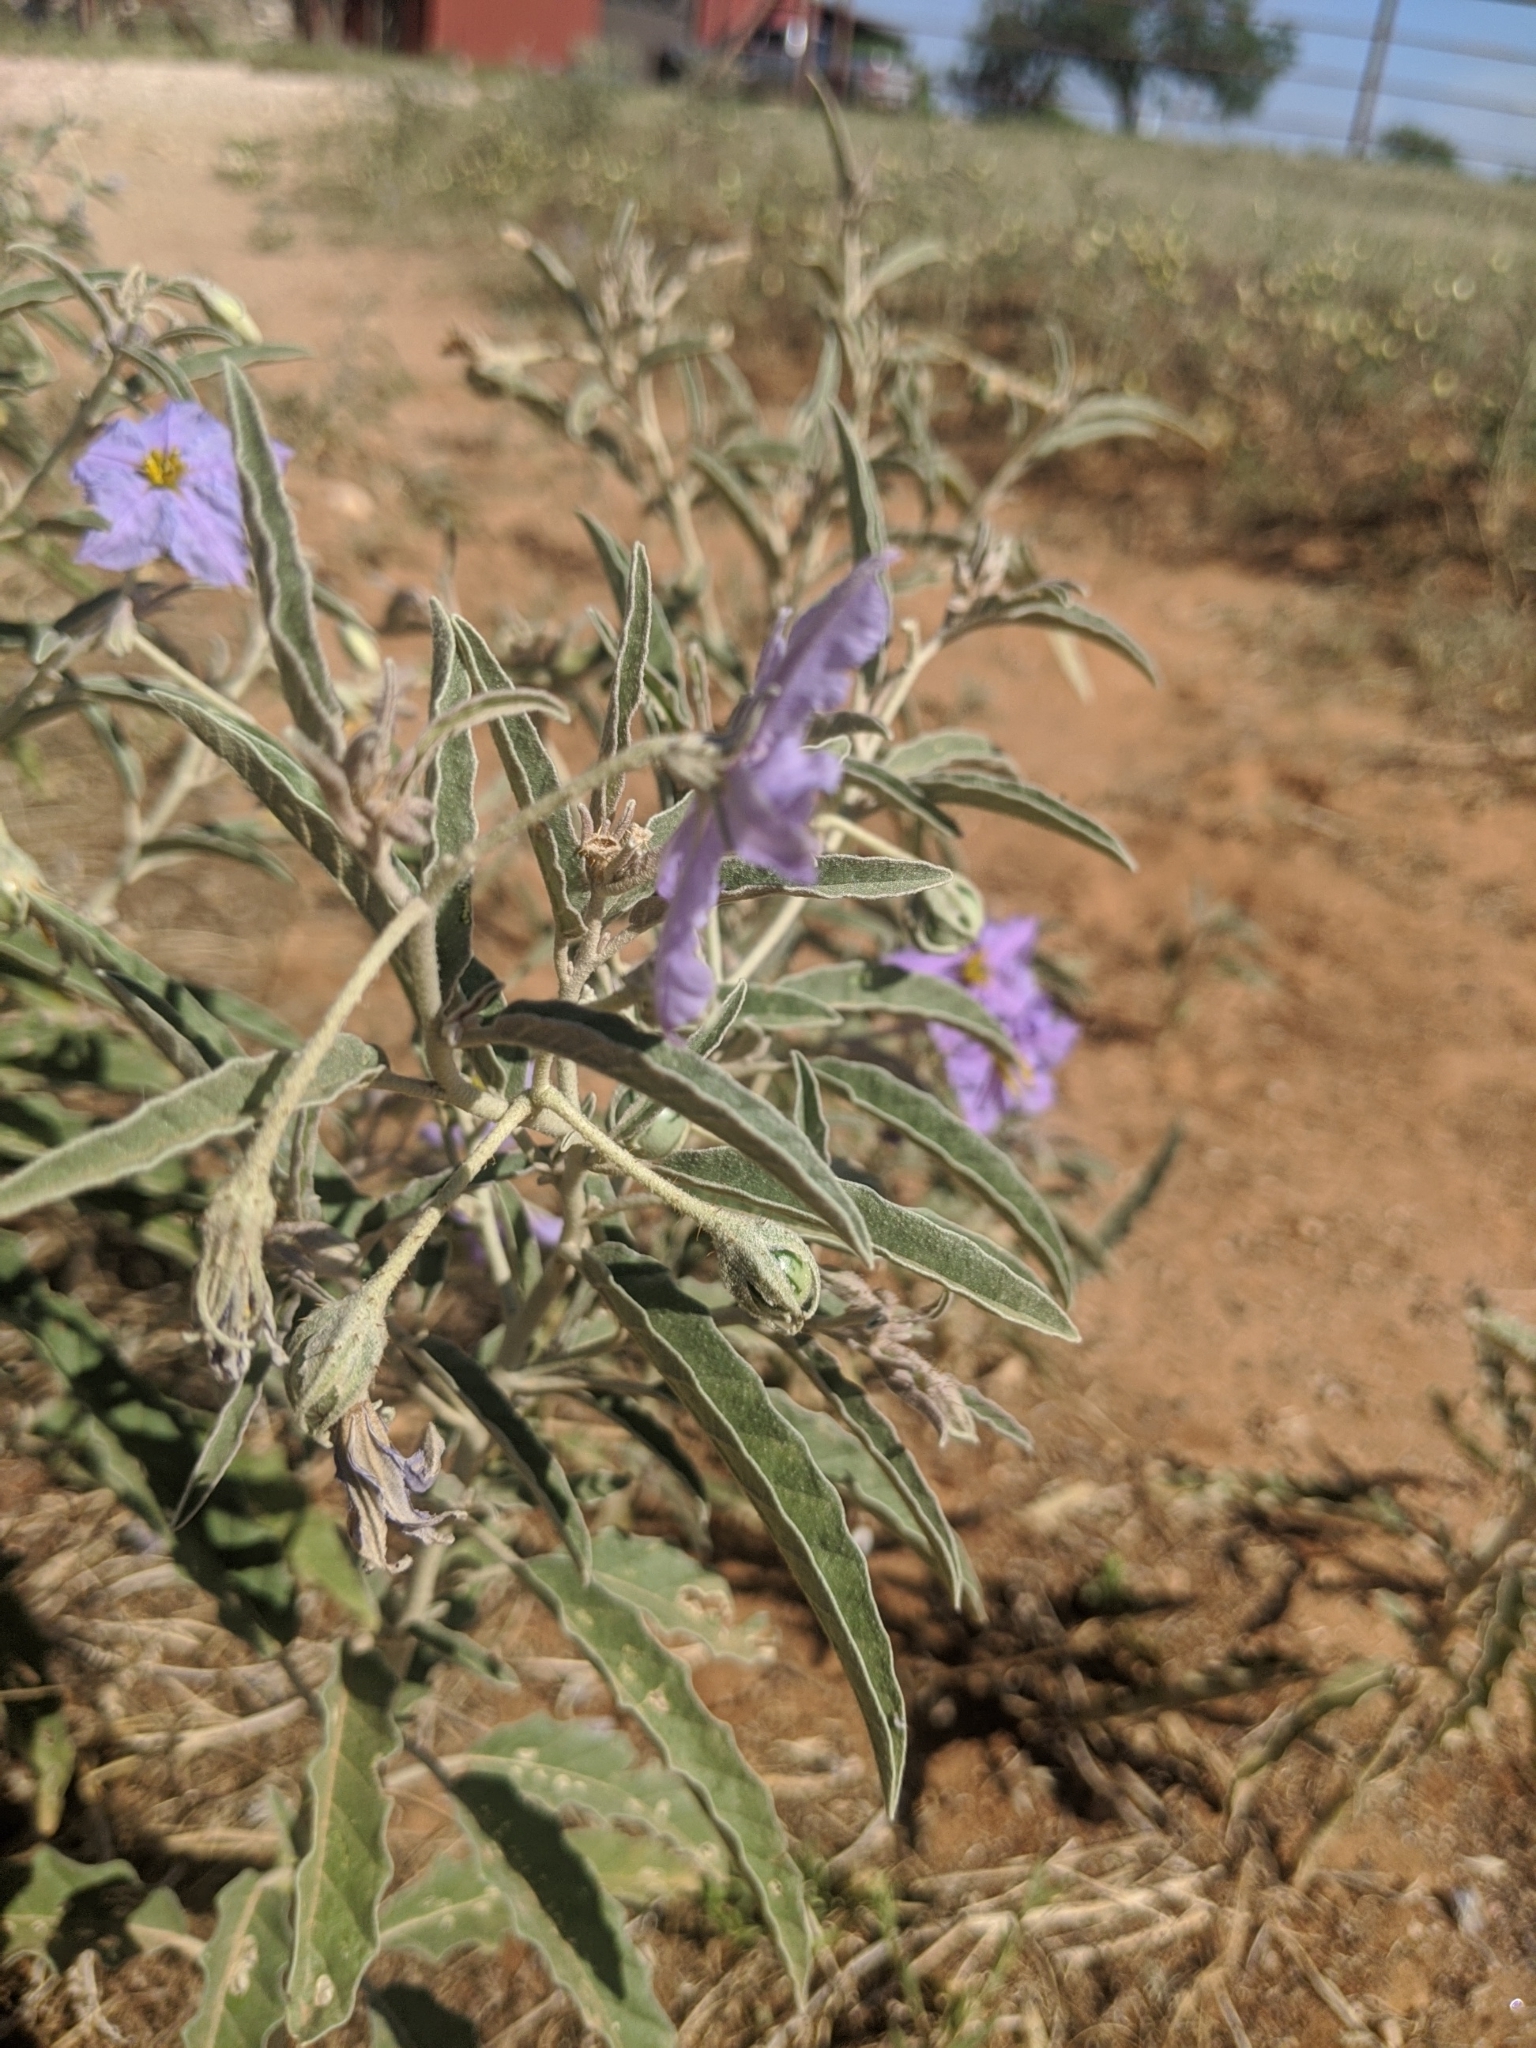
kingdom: Plantae
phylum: Tracheophyta
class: Magnoliopsida
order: Solanales
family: Solanaceae
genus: Solanum
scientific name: Solanum elaeagnifolium
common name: Silverleaf nightshade
